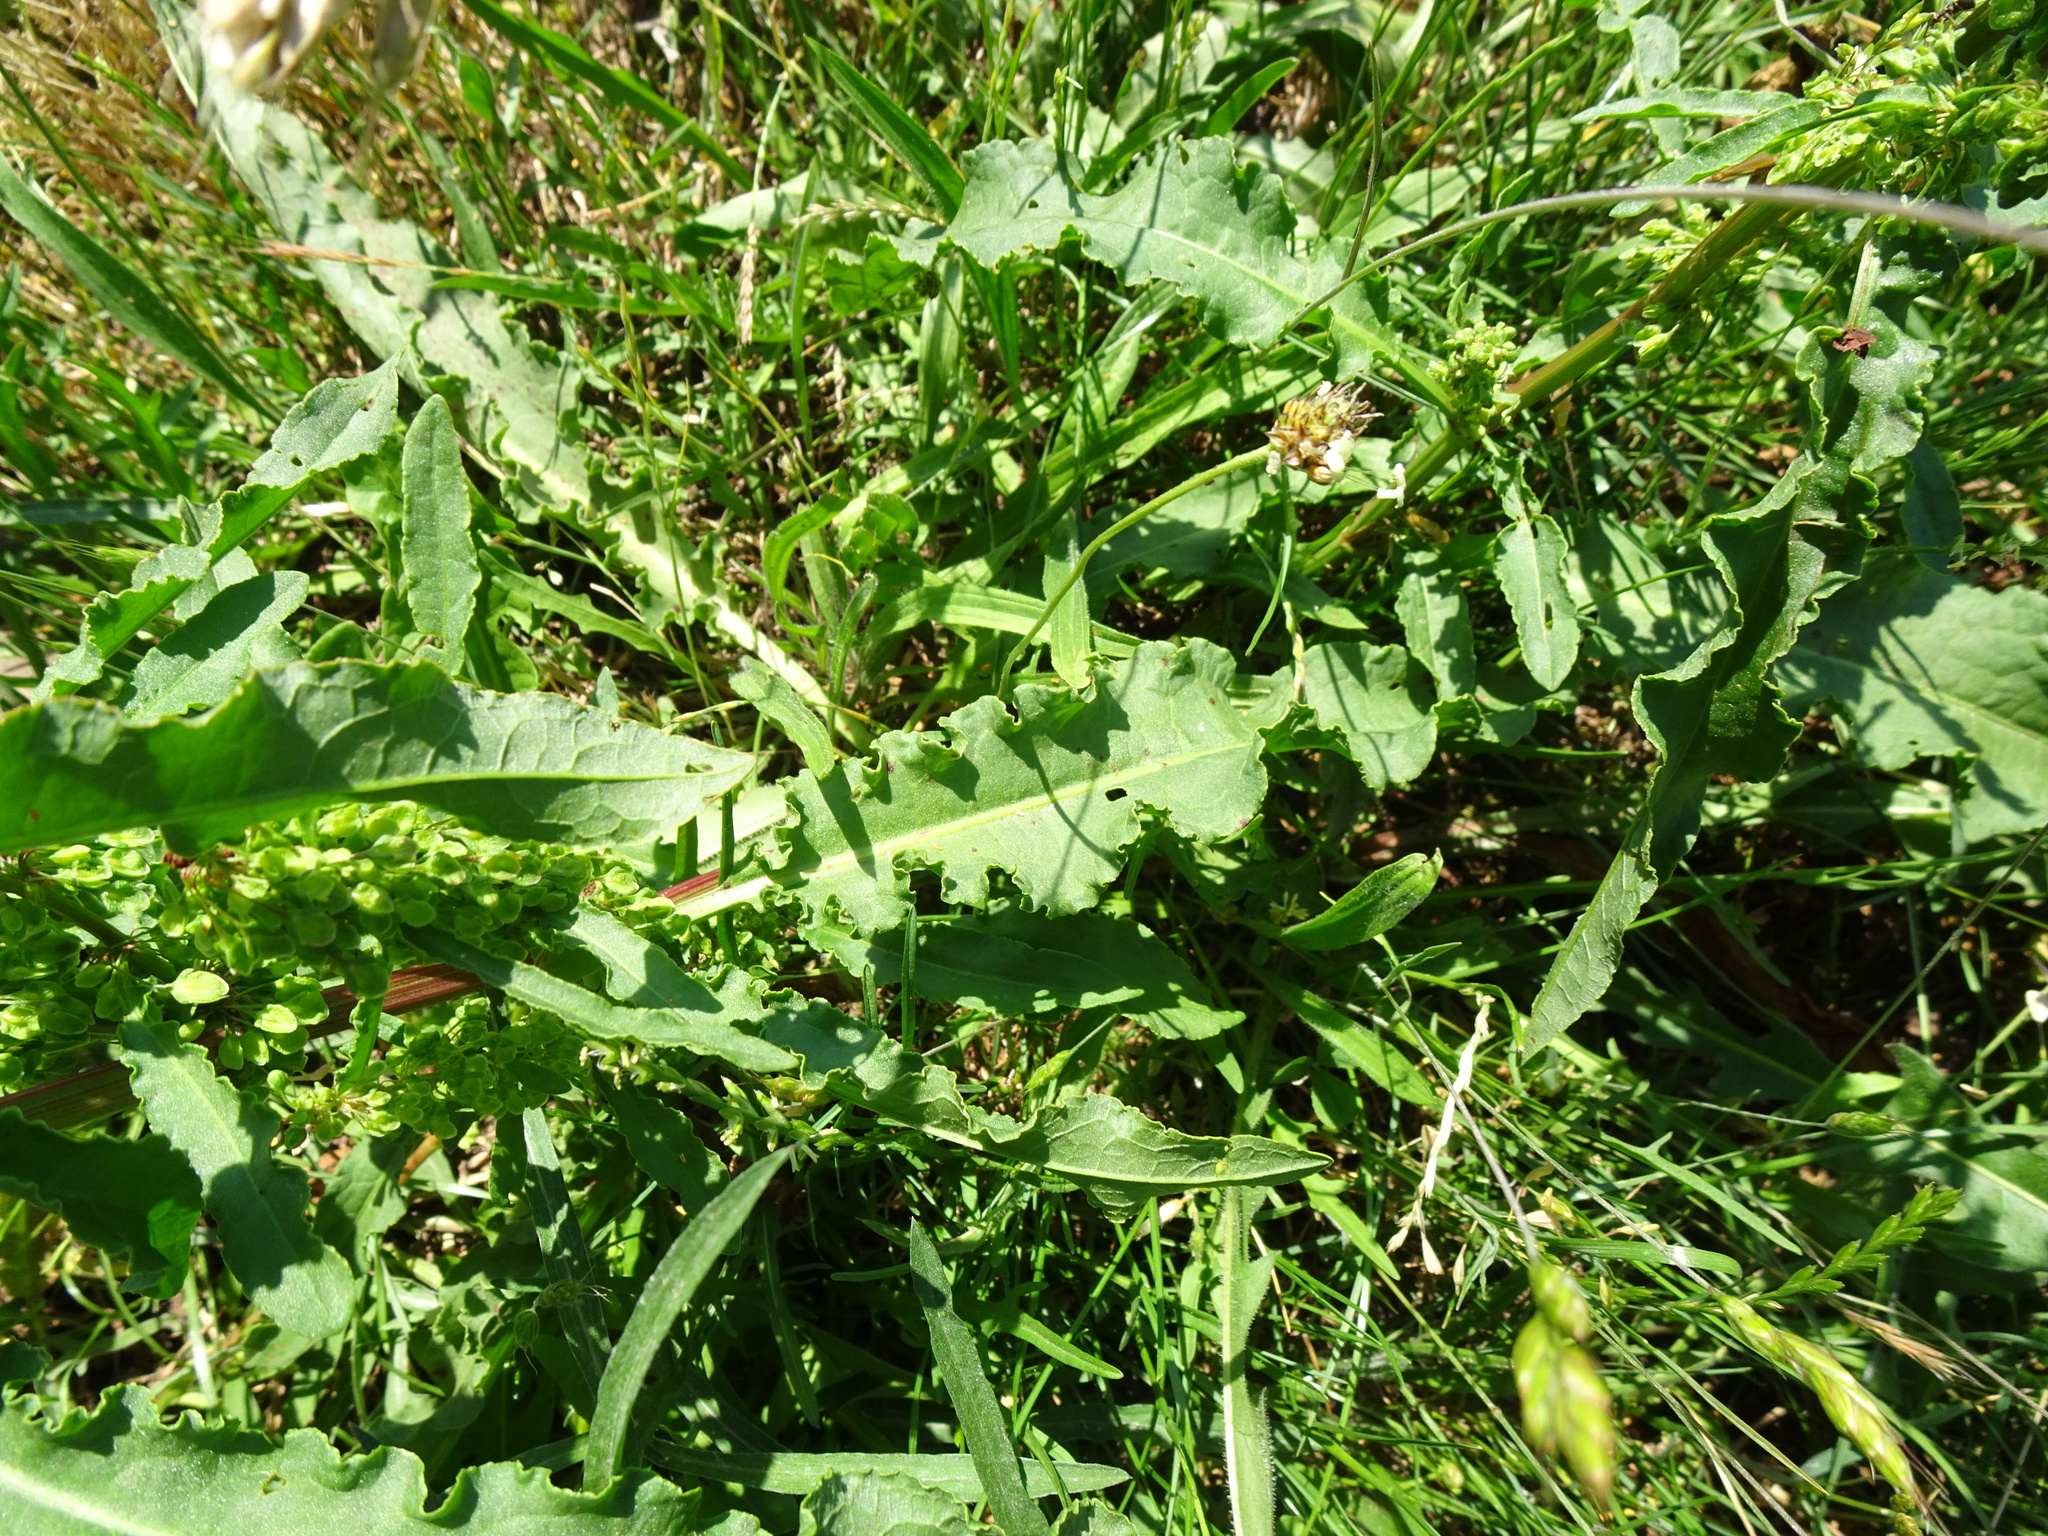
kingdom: Plantae
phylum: Tracheophyta
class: Magnoliopsida
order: Caryophyllales
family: Polygonaceae
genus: Rumex
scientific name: Rumex crispus
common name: Curled dock
